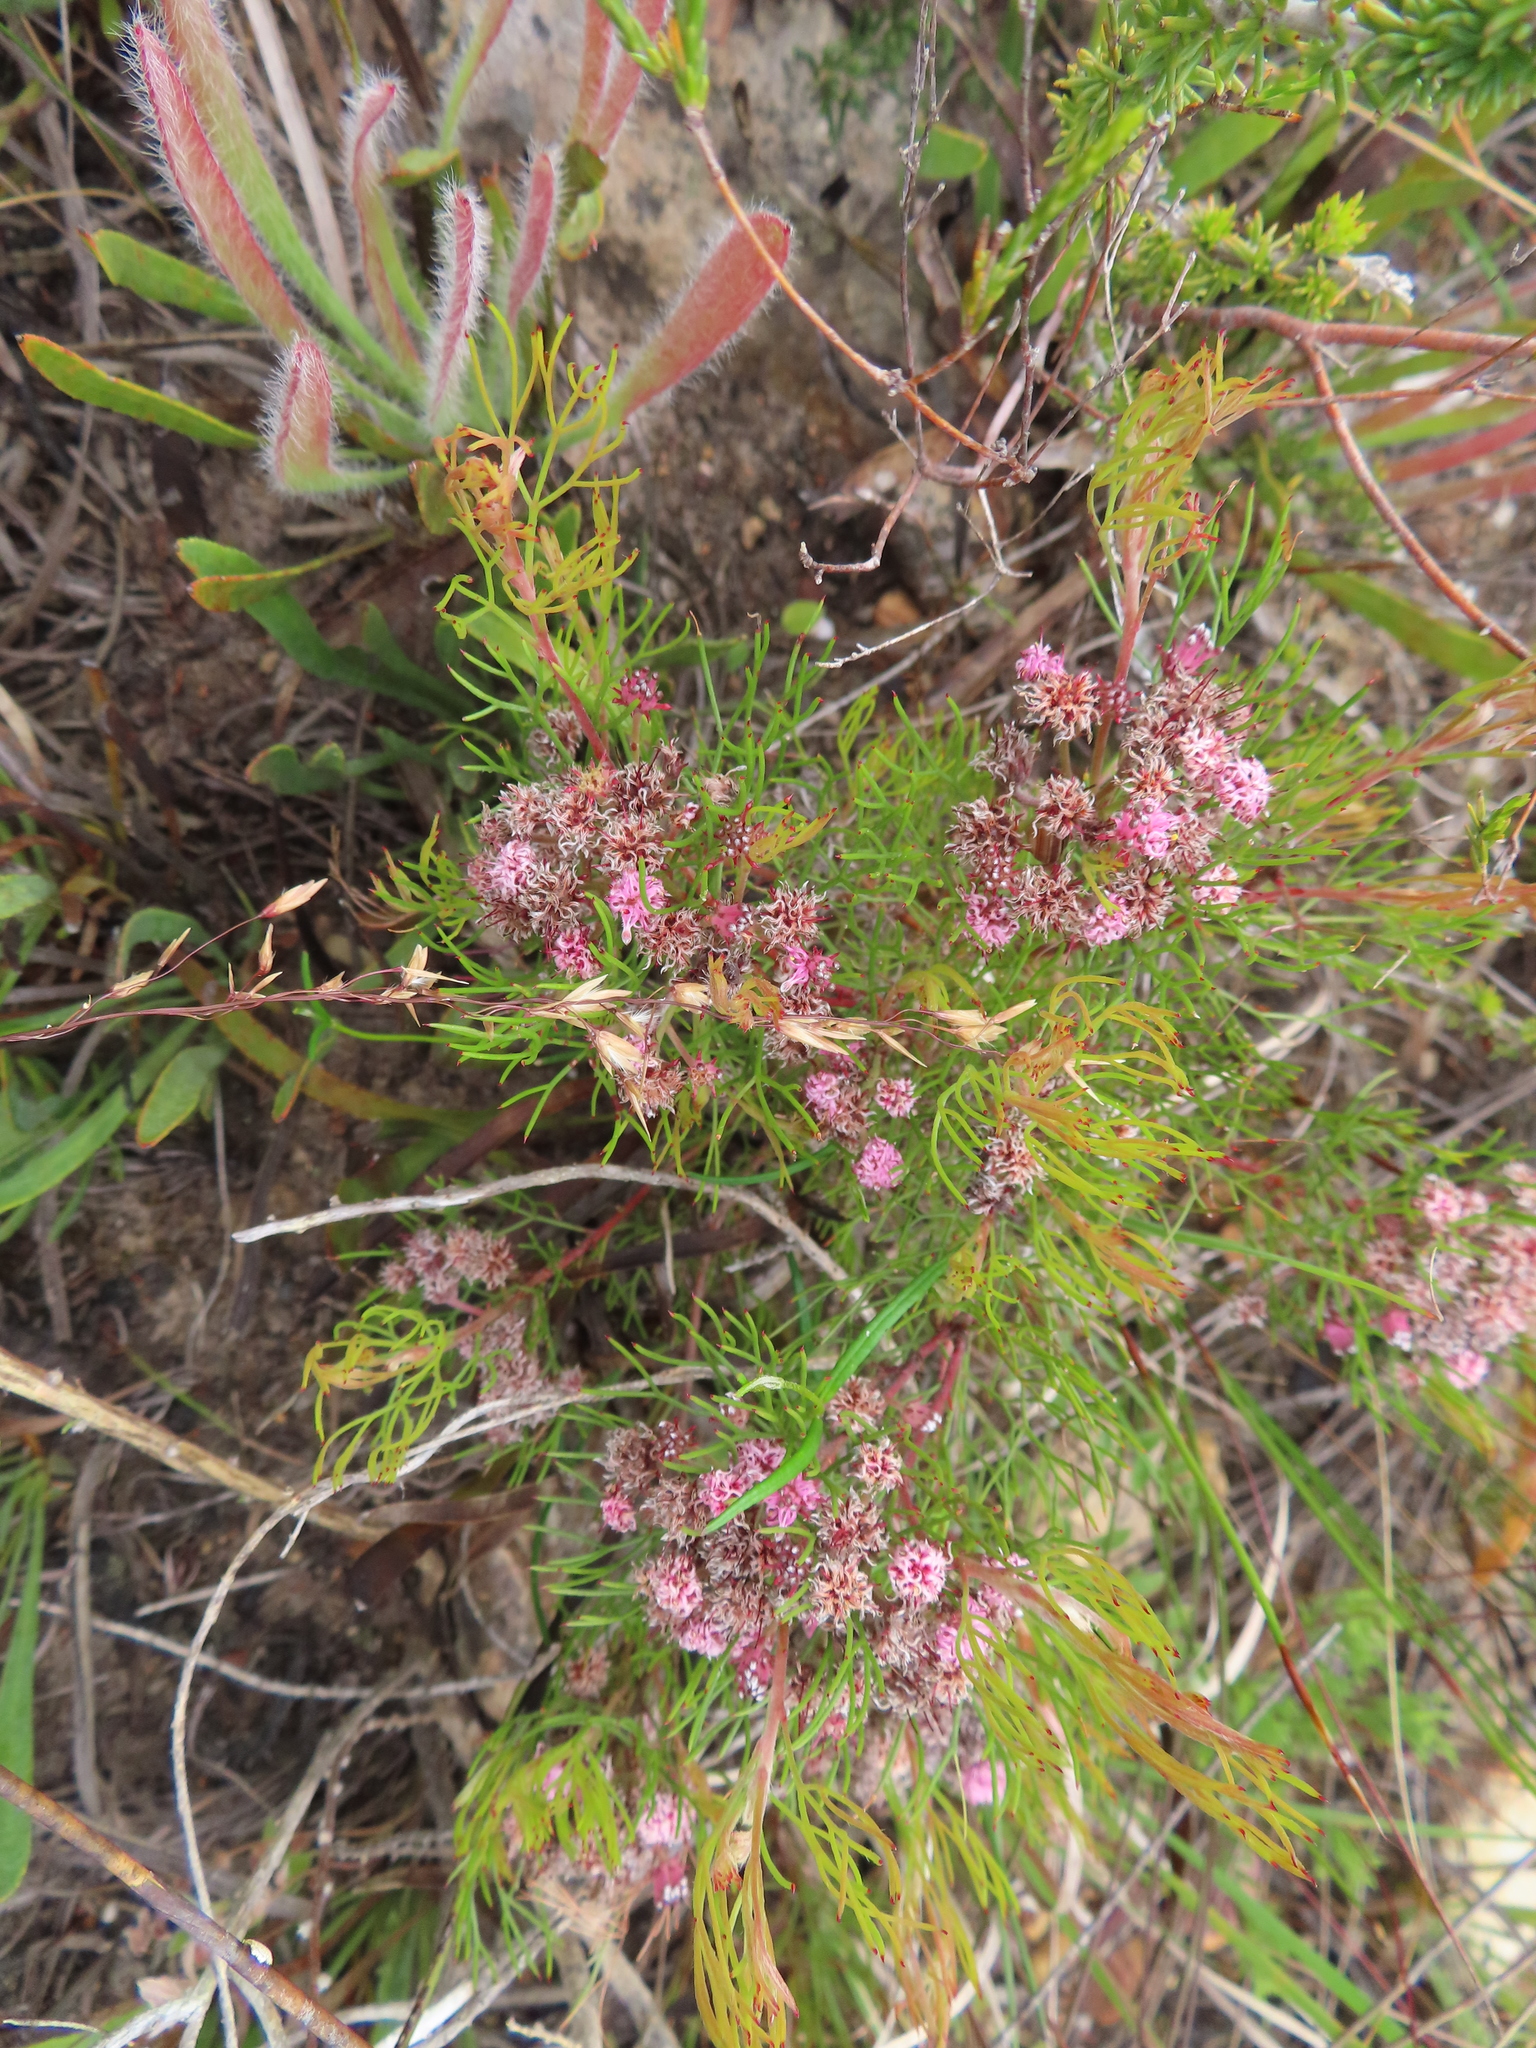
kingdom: Plantae
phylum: Tracheophyta
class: Magnoliopsida
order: Proteales
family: Proteaceae
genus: Serruria
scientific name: Serruria fasciflora
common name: Common pin spiderhead
